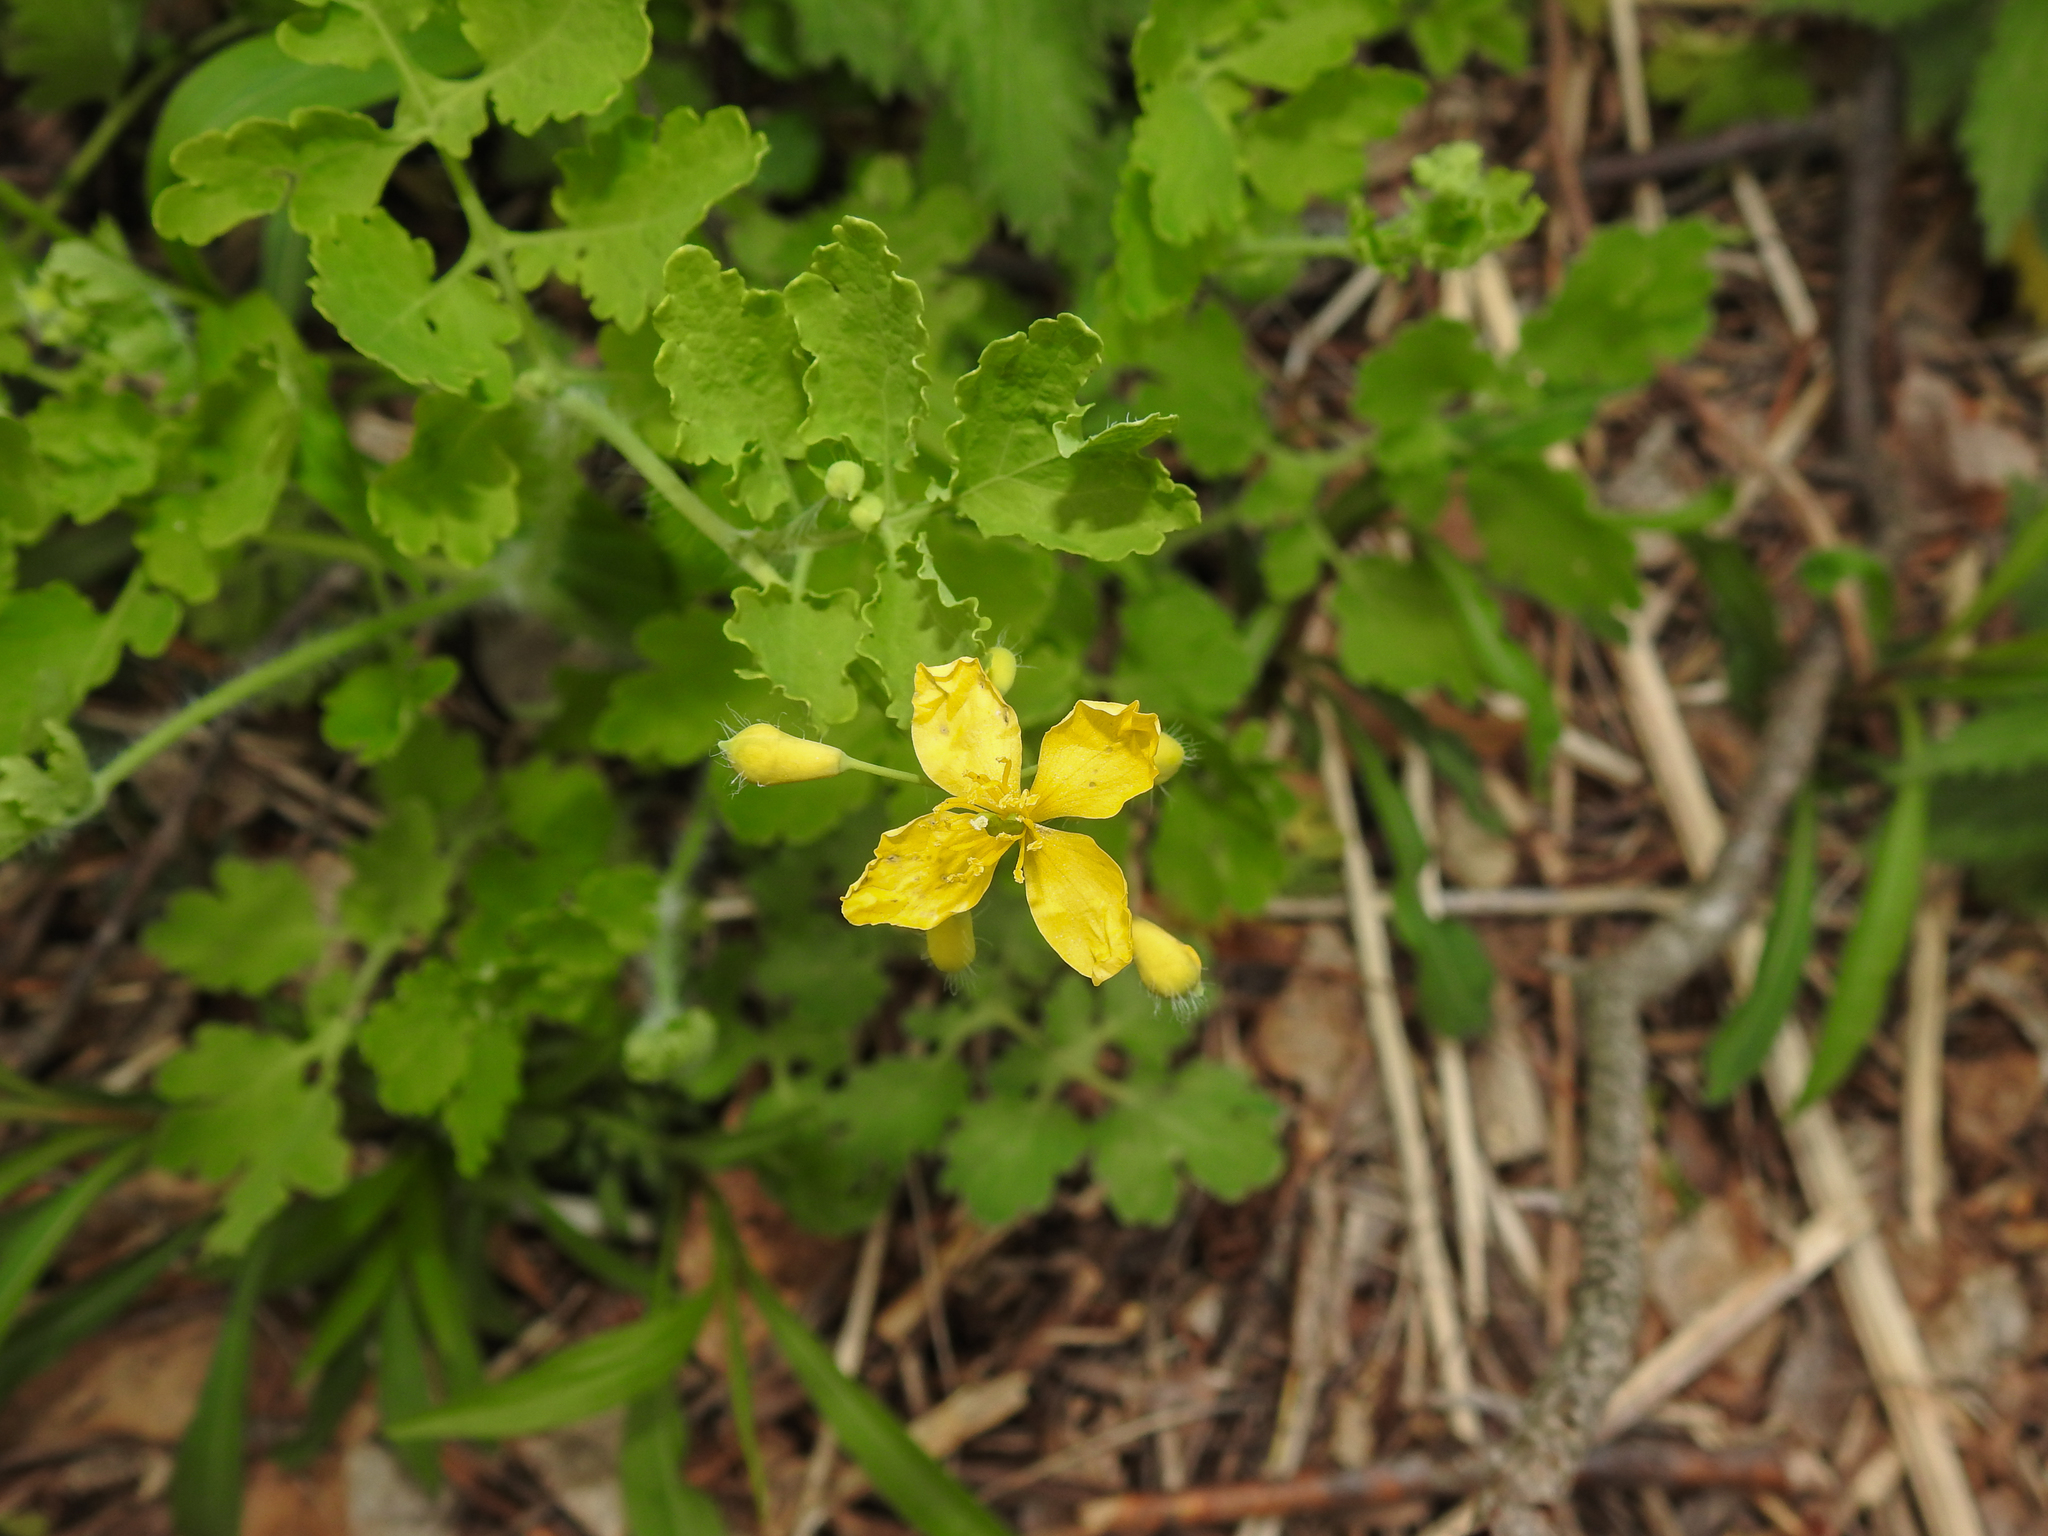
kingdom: Plantae
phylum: Tracheophyta
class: Magnoliopsida
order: Ranunculales
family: Papaveraceae
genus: Chelidonium
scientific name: Chelidonium majus
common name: Greater celandine
